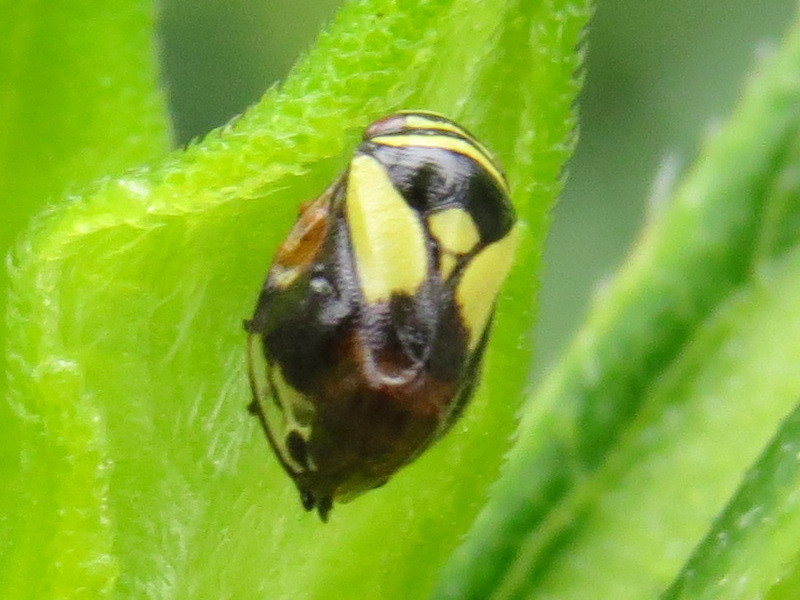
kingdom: Animalia
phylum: Arthropoda
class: Insecta
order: Hemiptera
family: Clastopteridae
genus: Clastoptera
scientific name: Clastoptera proteus
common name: Dogwood spittlebug
